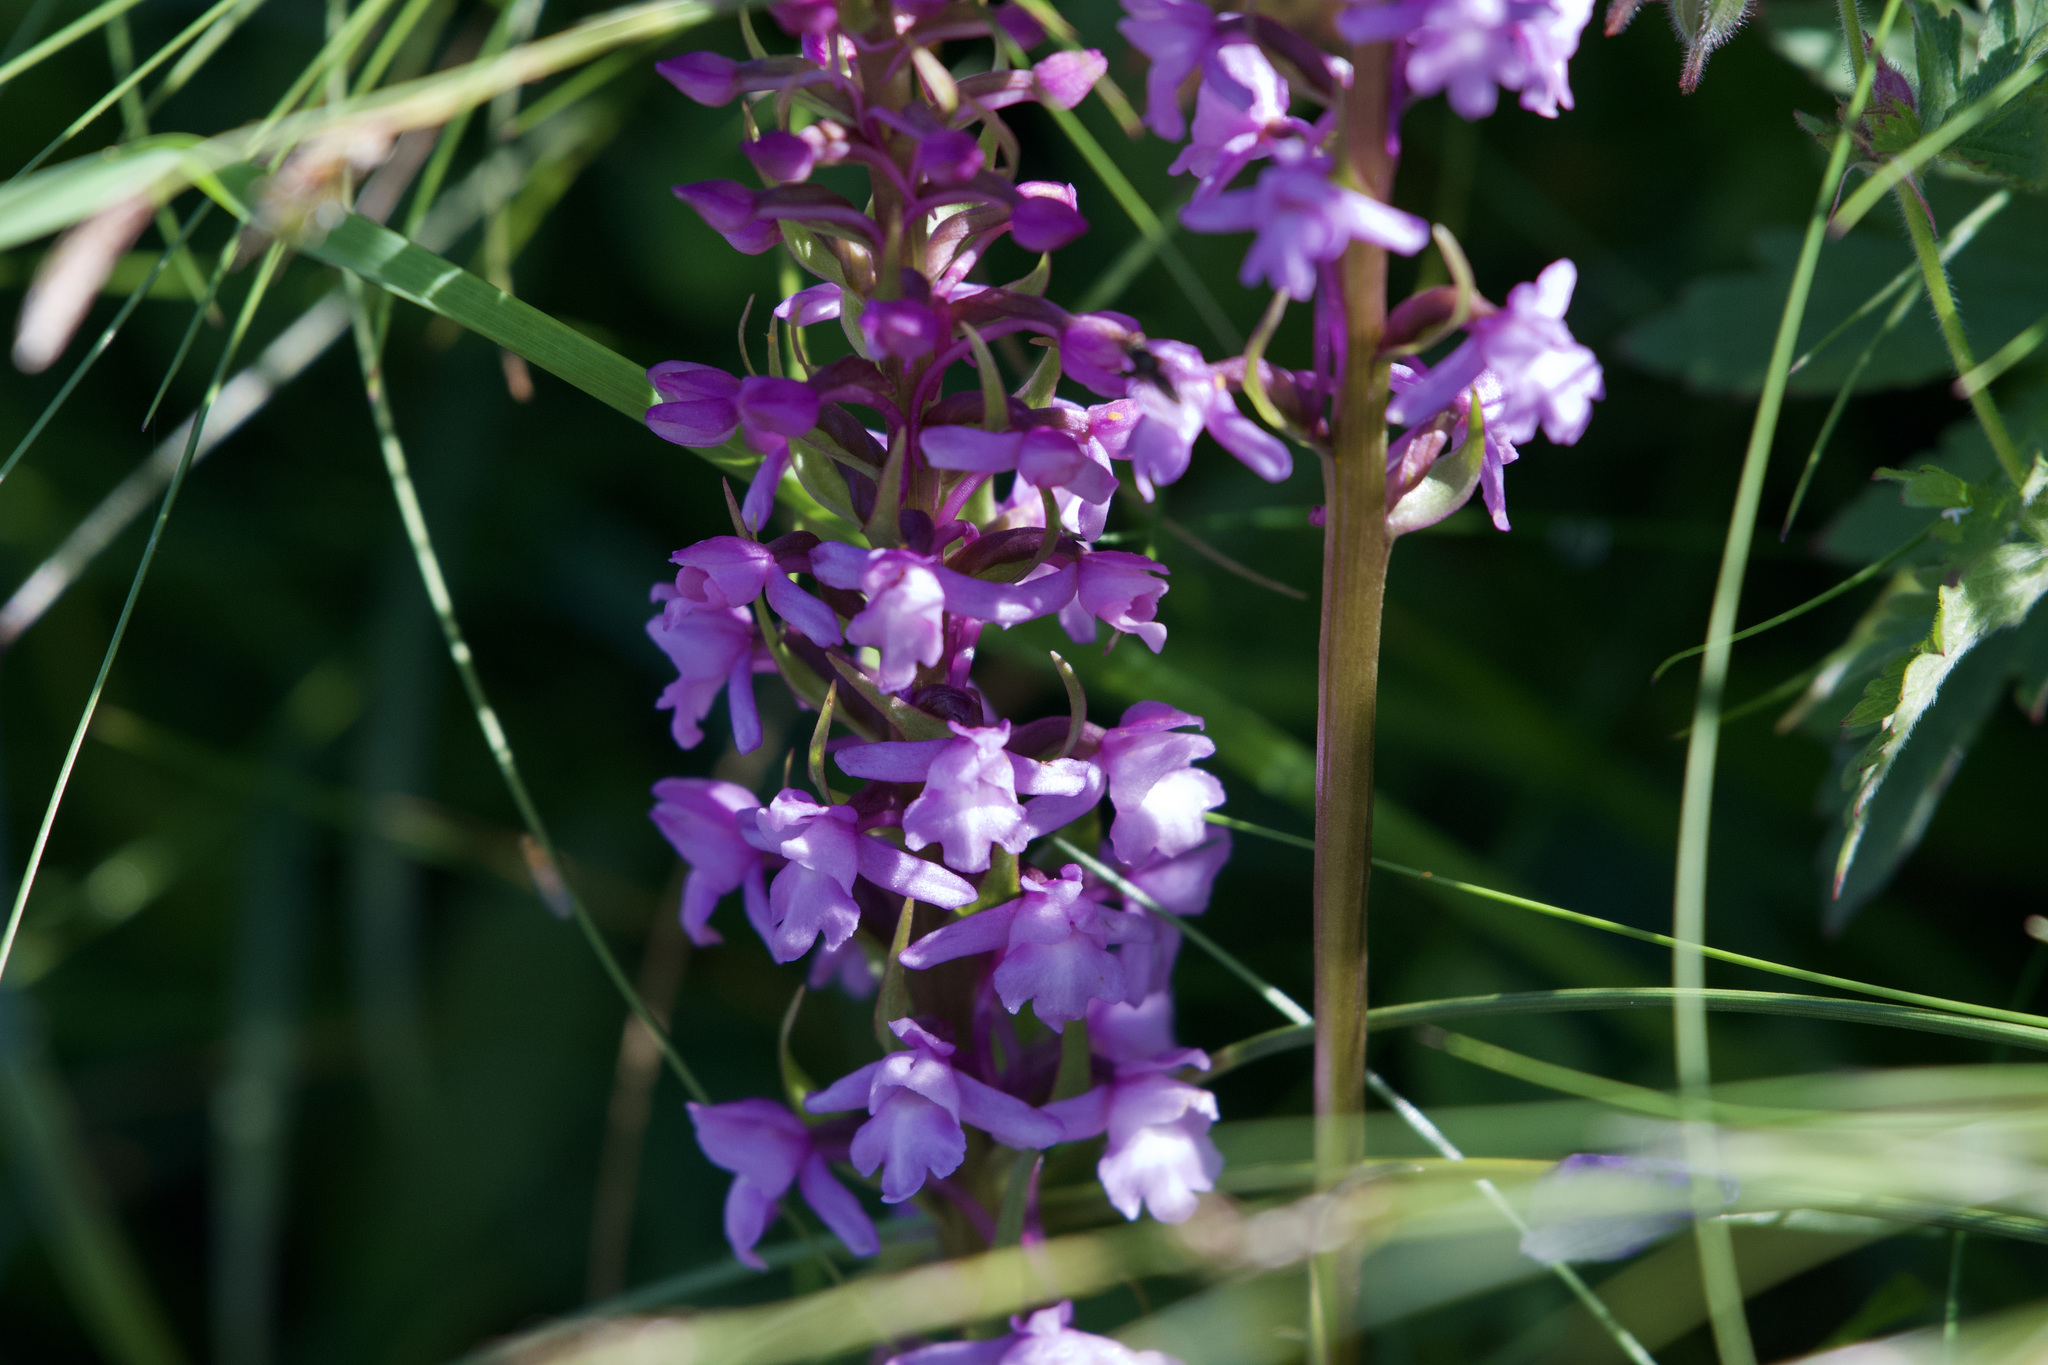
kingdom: Plantae
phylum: Tracheophyta
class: Liliopsida
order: Asparagales
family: Orchidaceae
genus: Gymnadenia
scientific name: Gymnadenia conopsea
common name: Fragrant orchid
